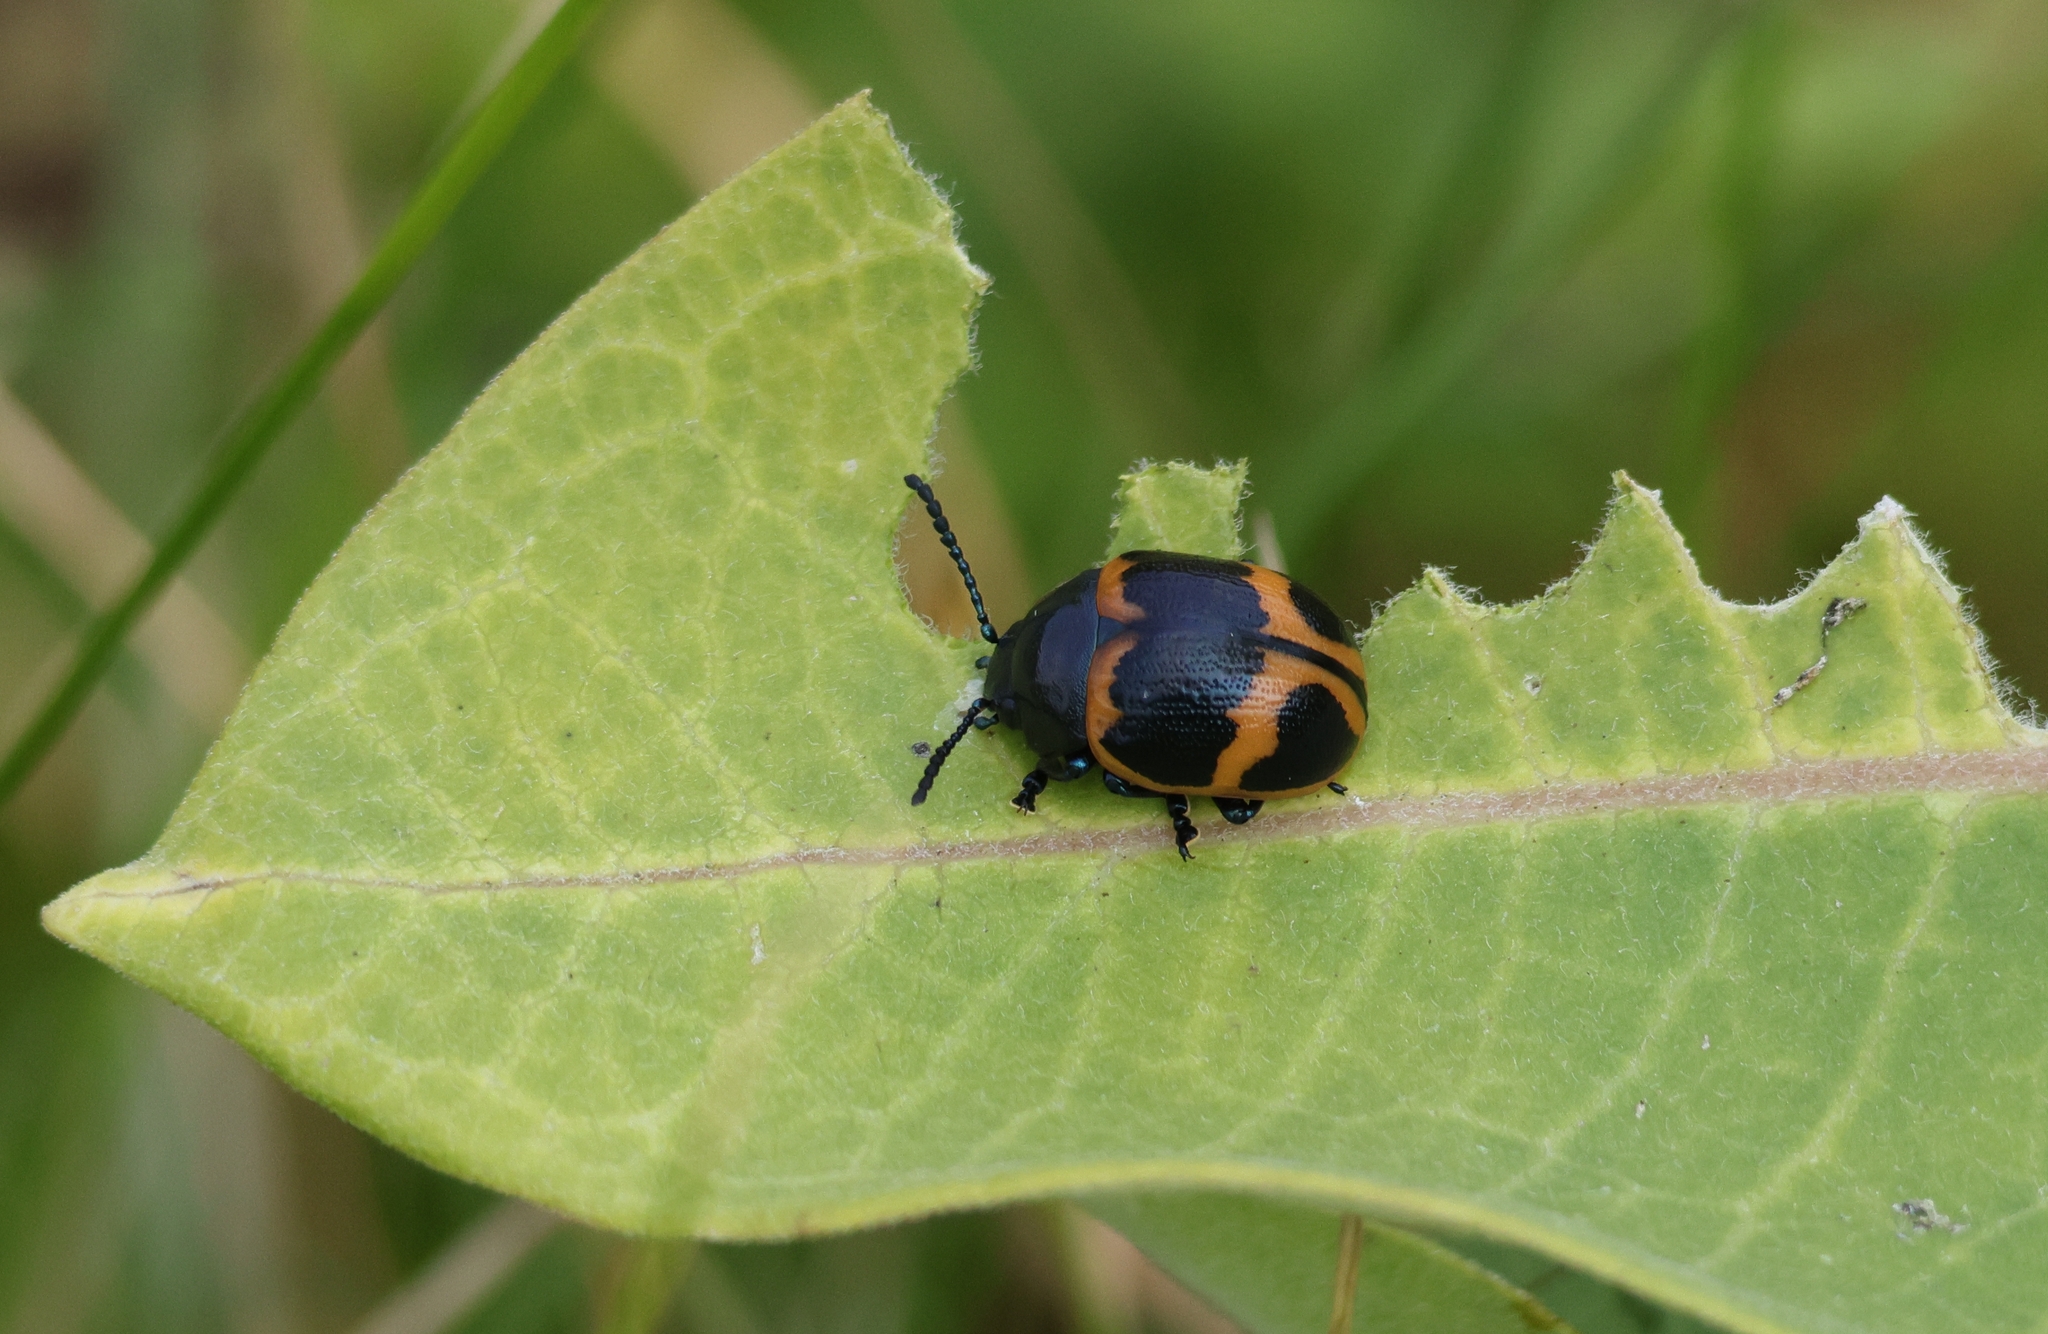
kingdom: Animalia
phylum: Arthropoda
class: Insecta
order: Coleoptera
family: Chrysomelidae
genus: Labidomera
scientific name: Labidomera clivicollis
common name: Swamp milkweed leaf beetle
